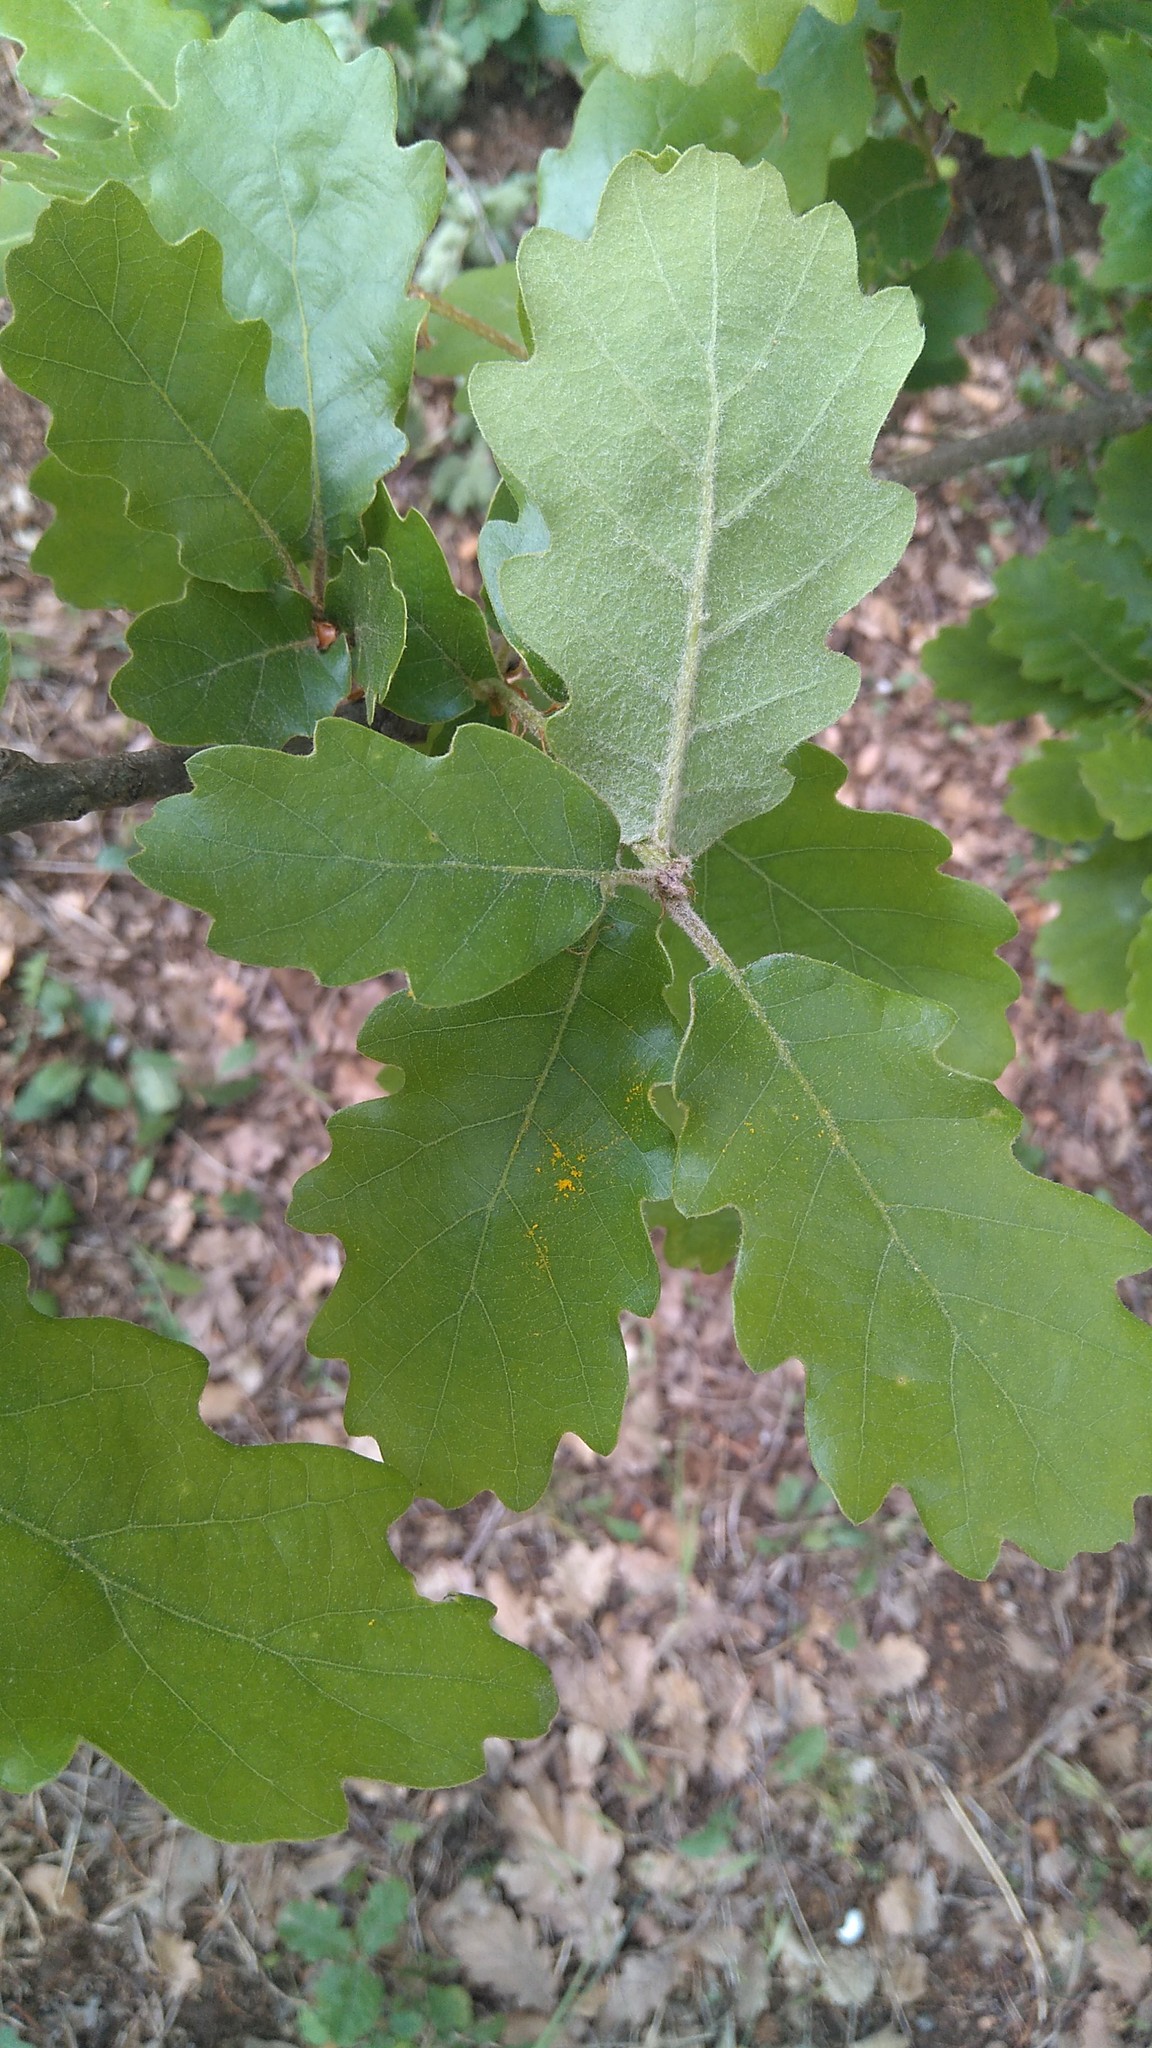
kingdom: Plantae
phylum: Tracheophyta
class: Magnoliopsida
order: Fagales
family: Fagaceae
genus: Quercus
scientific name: Quercus pubescens
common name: Downy oak
